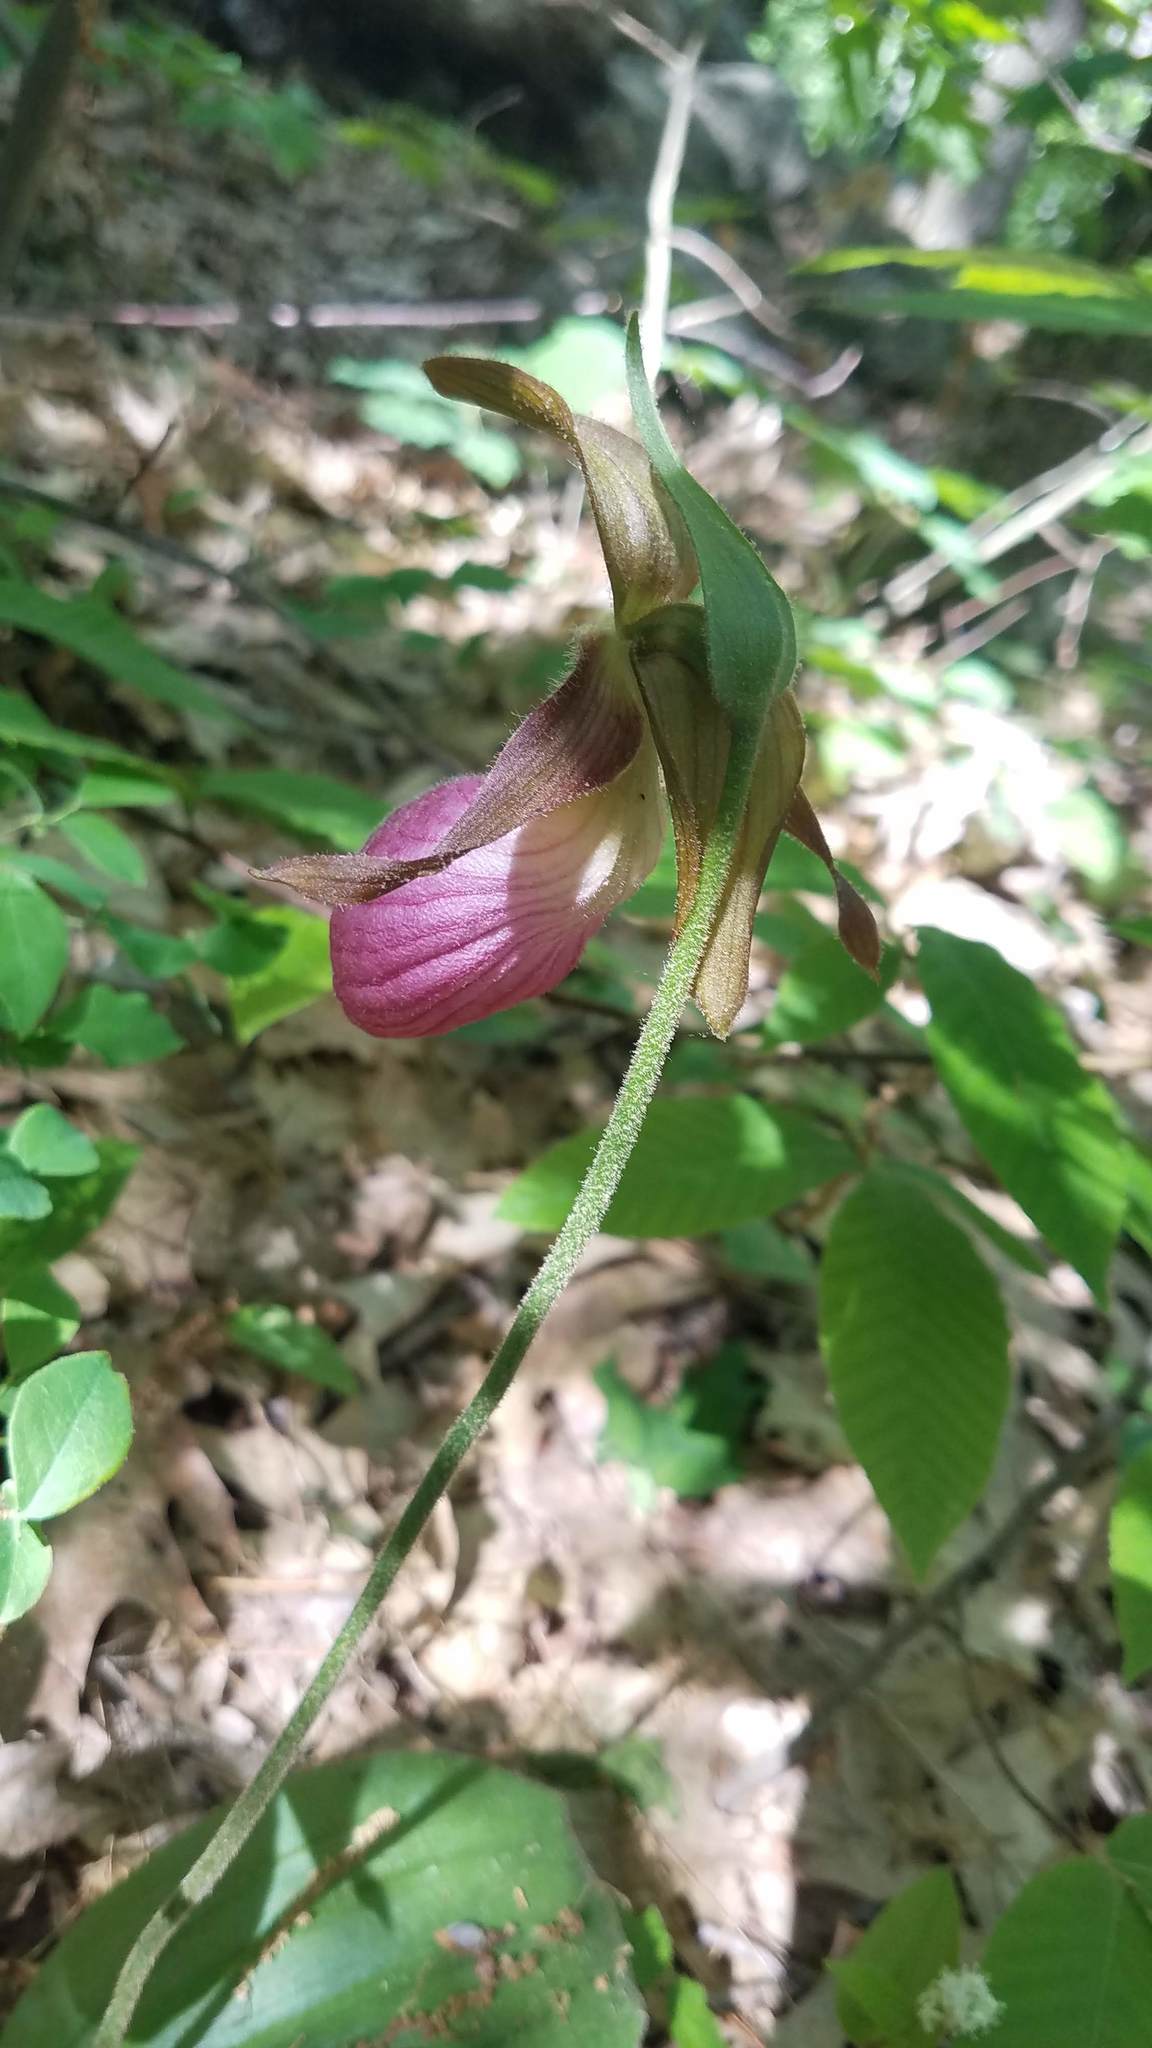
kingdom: Plantae
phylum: Tracheophyta
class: Liliopsida
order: Asparagales
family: Orchidaceae
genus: Cypripedium
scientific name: Cypripedium acaule
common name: Pink lady's-slipper
